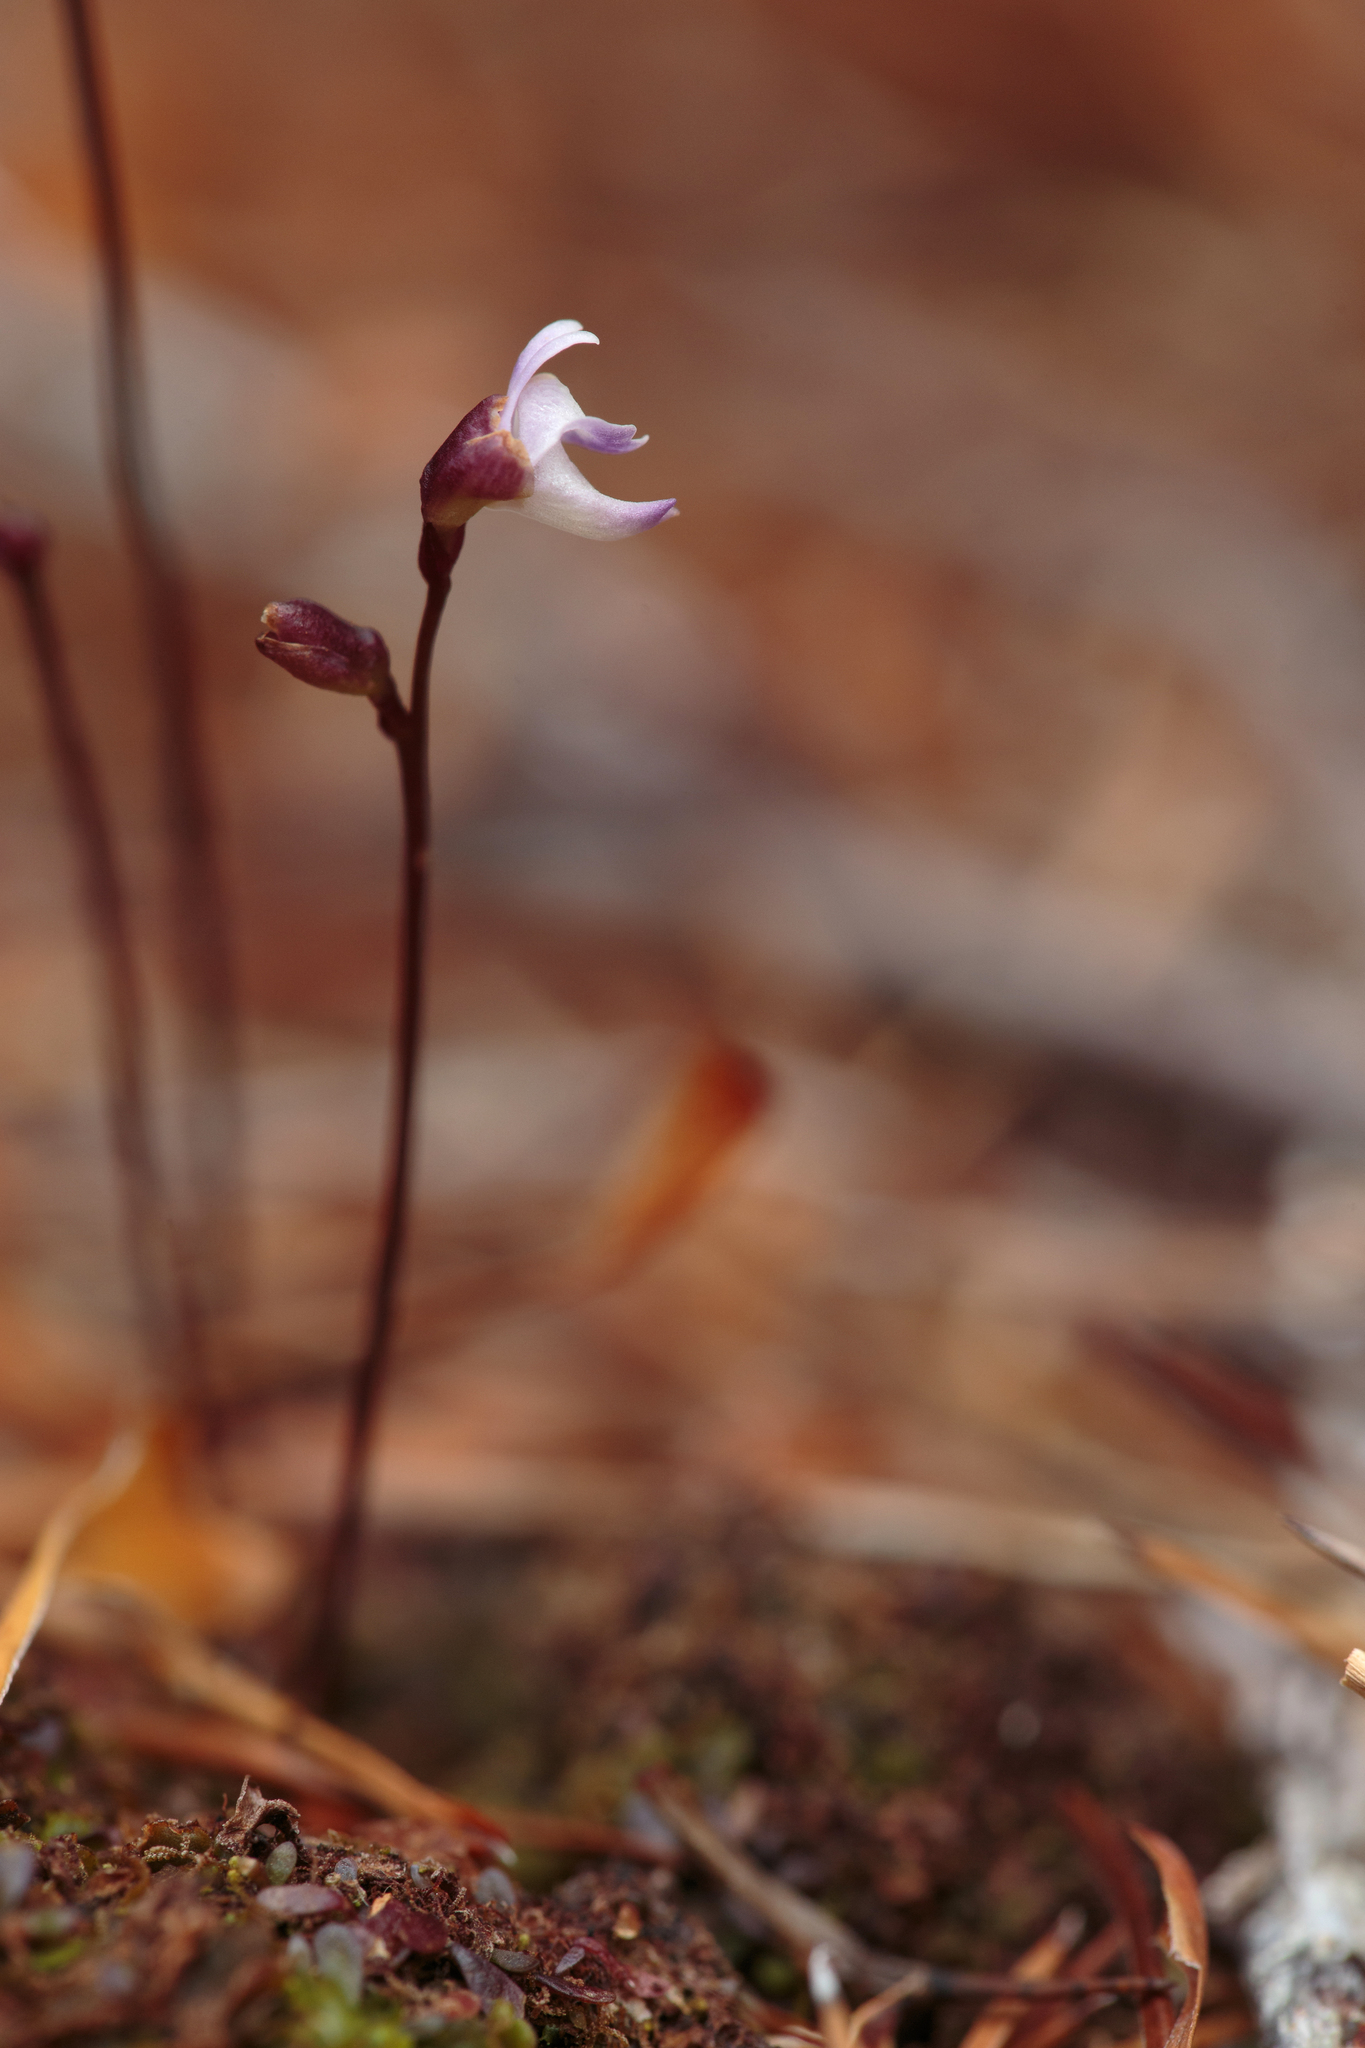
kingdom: Plantae
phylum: Tracheophyta
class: Magnoliopsida
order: Lamiales
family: Lentibulariaceae
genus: Utricularia
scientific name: Utricularia delicatula
